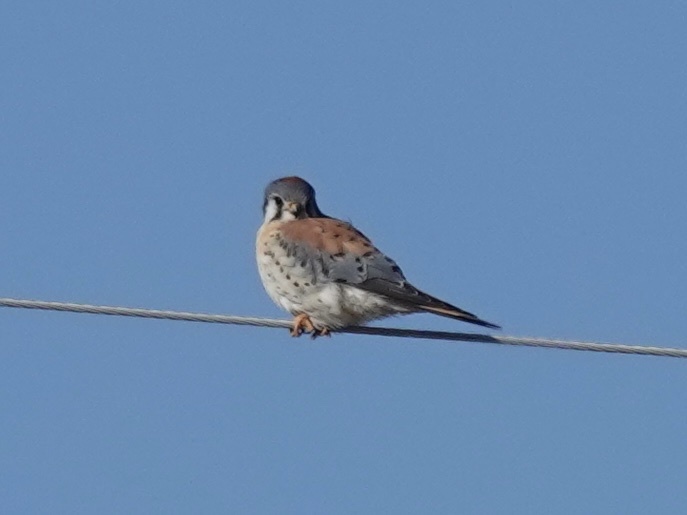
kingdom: Animalia
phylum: Chordata
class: Aves
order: Falconiformes
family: Falconidae
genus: Falco
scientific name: Falco sparverius
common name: American kestrel
